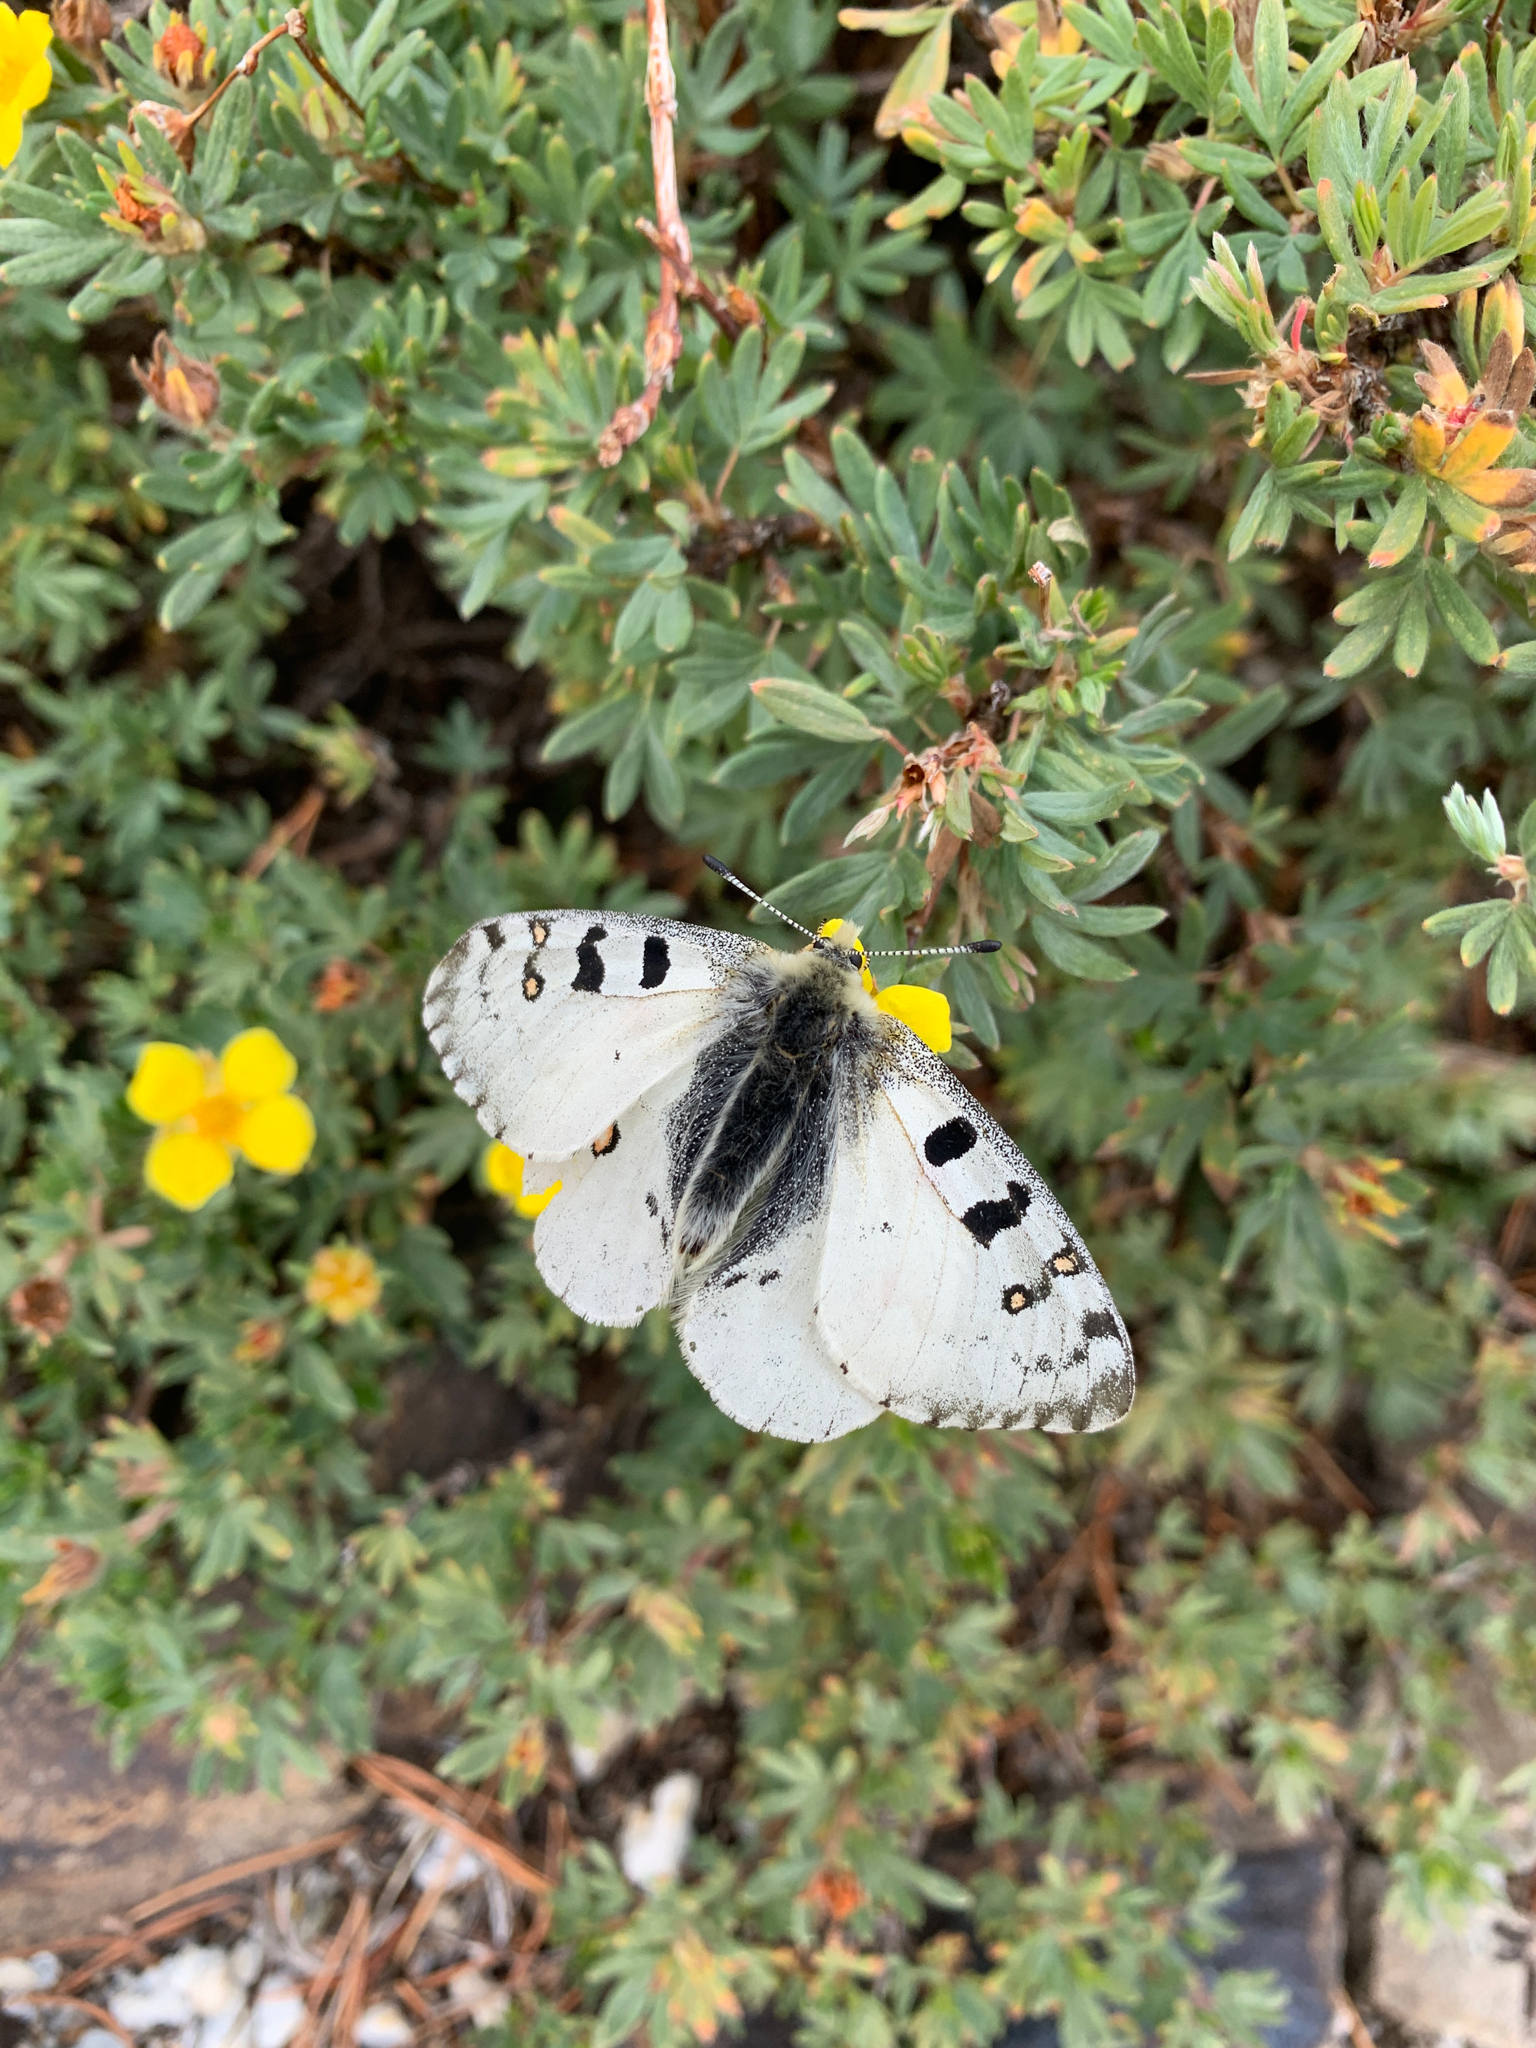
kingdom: Animalia
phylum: Arthropoda
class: Insecta
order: Lepidoptera
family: Papilionidae
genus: Parnassius
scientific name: Parnassius smintheus
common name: Mountain parnassian
